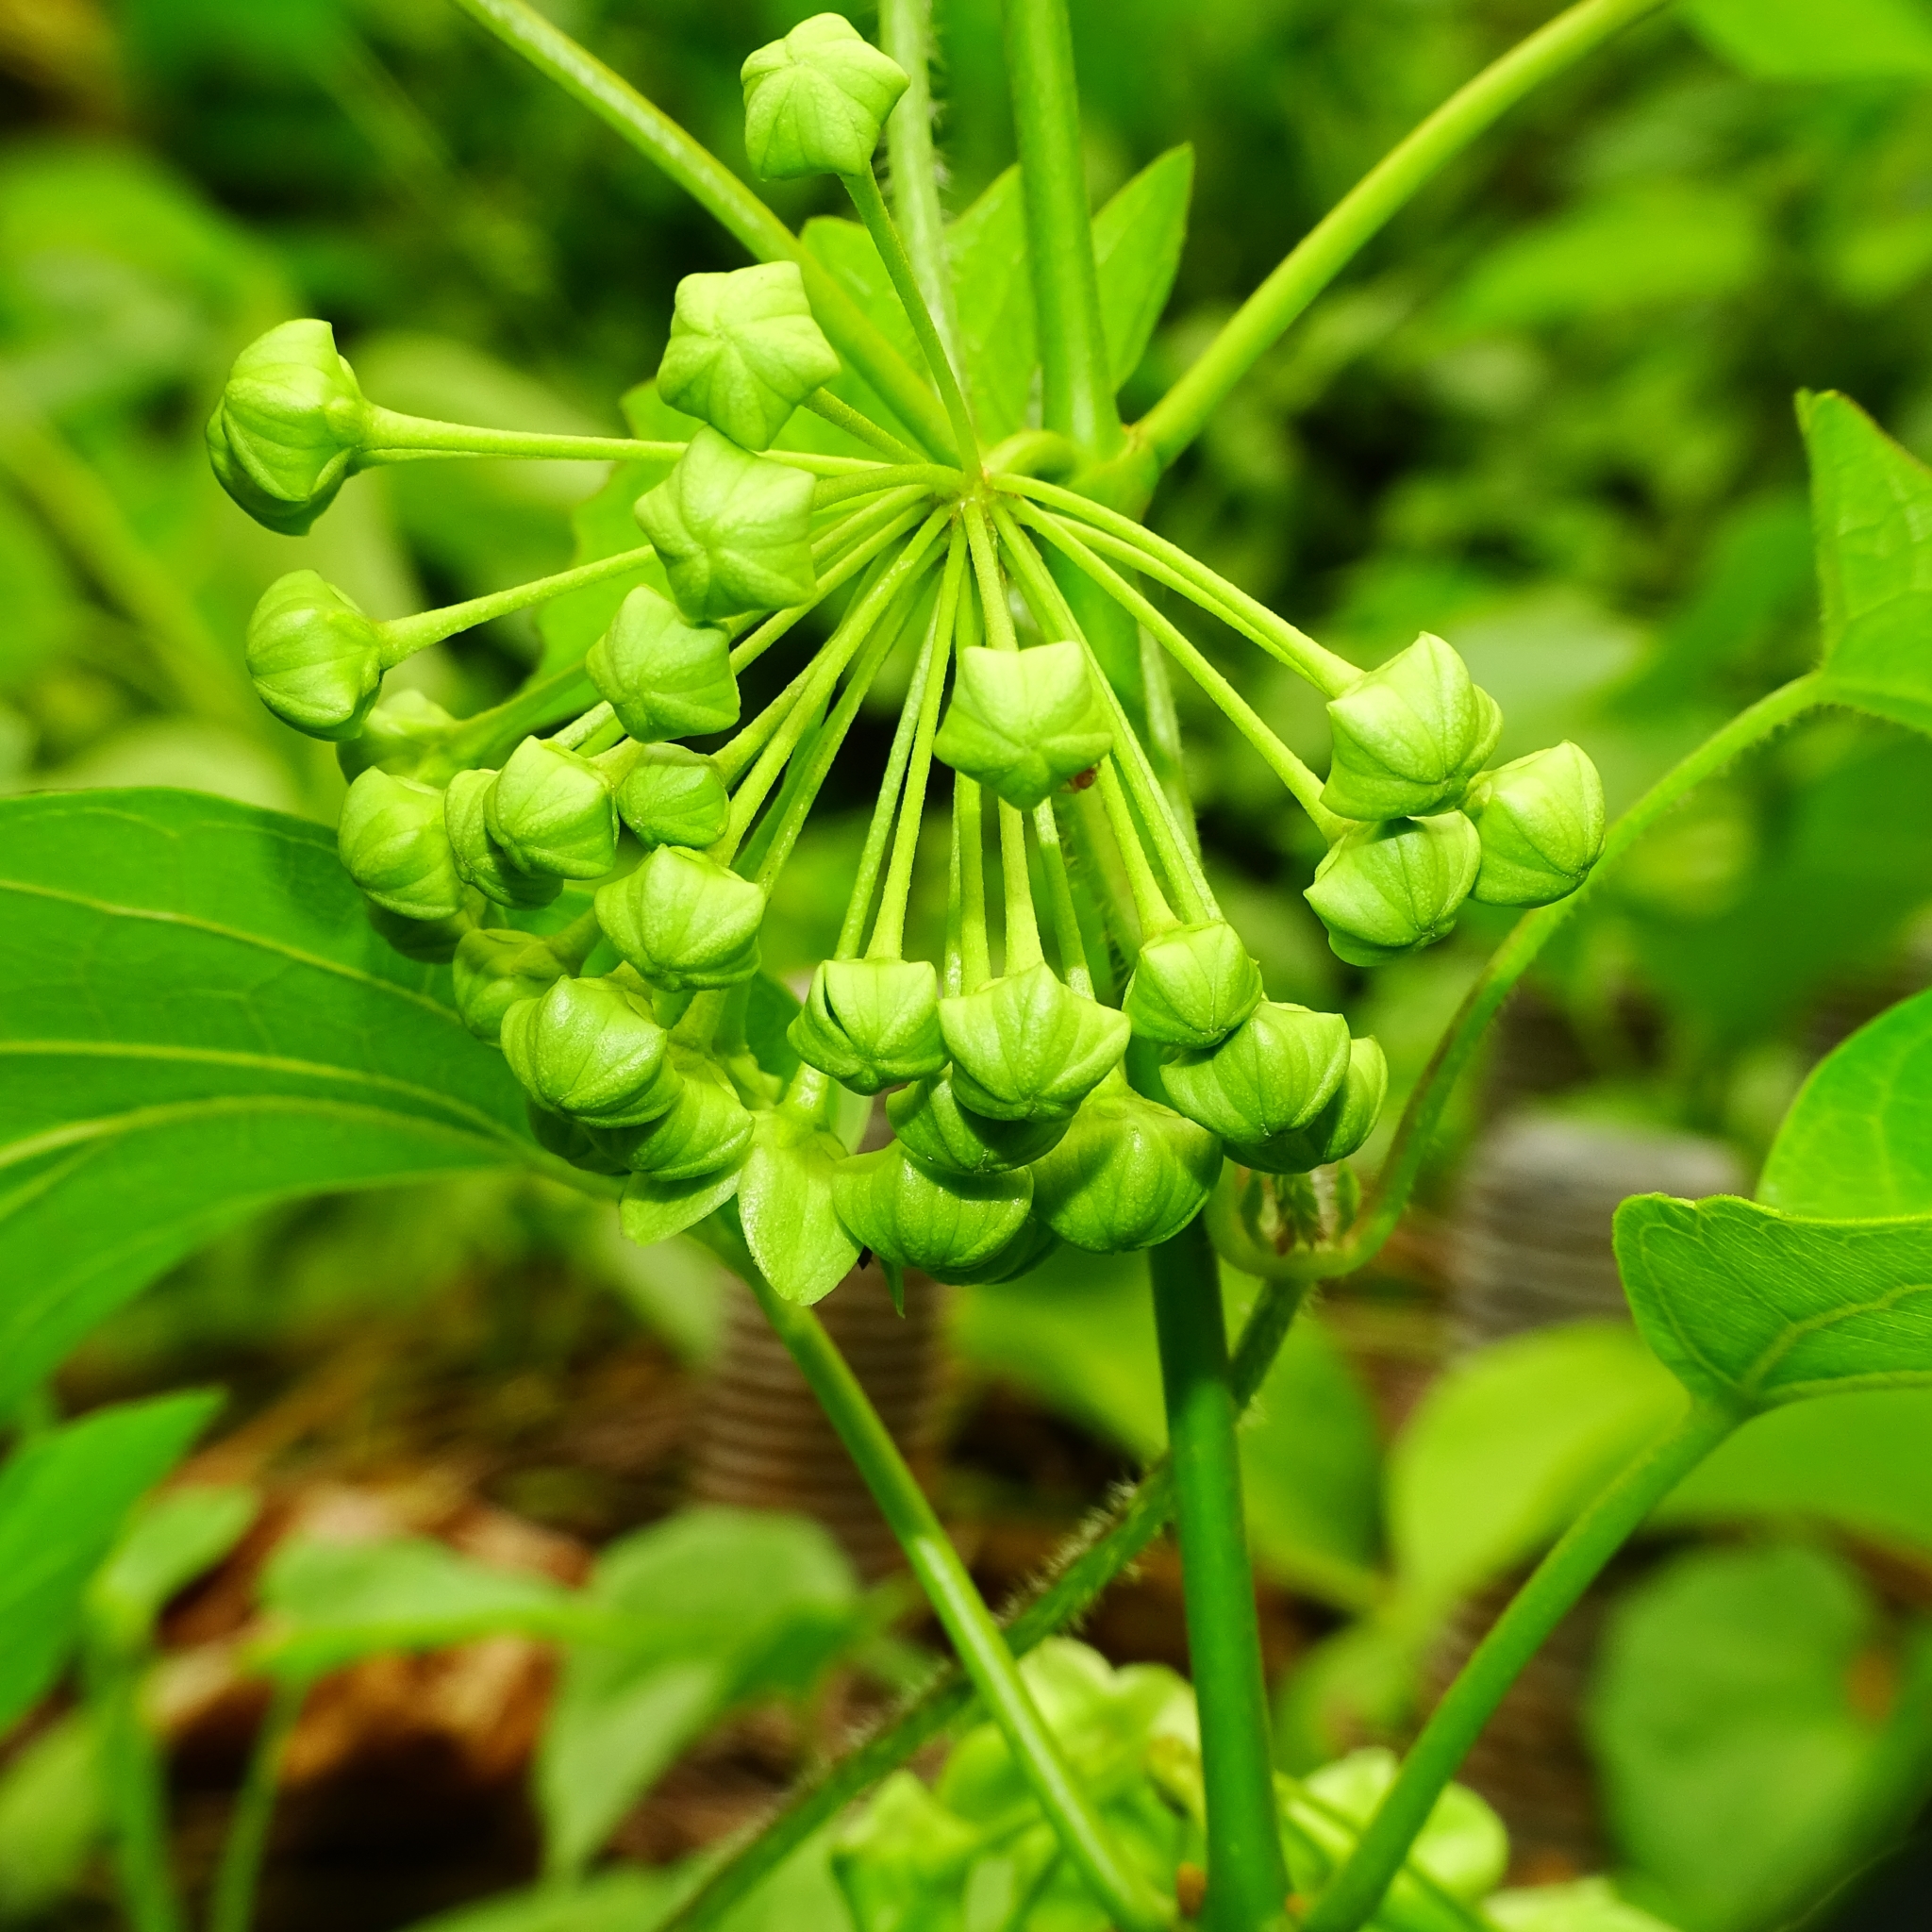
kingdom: Plantae
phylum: Tracheophyta
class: Magnoliopsida
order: Gentianales
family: Apocynaceae
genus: Stephanotis
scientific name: Stephanotis volubilis
